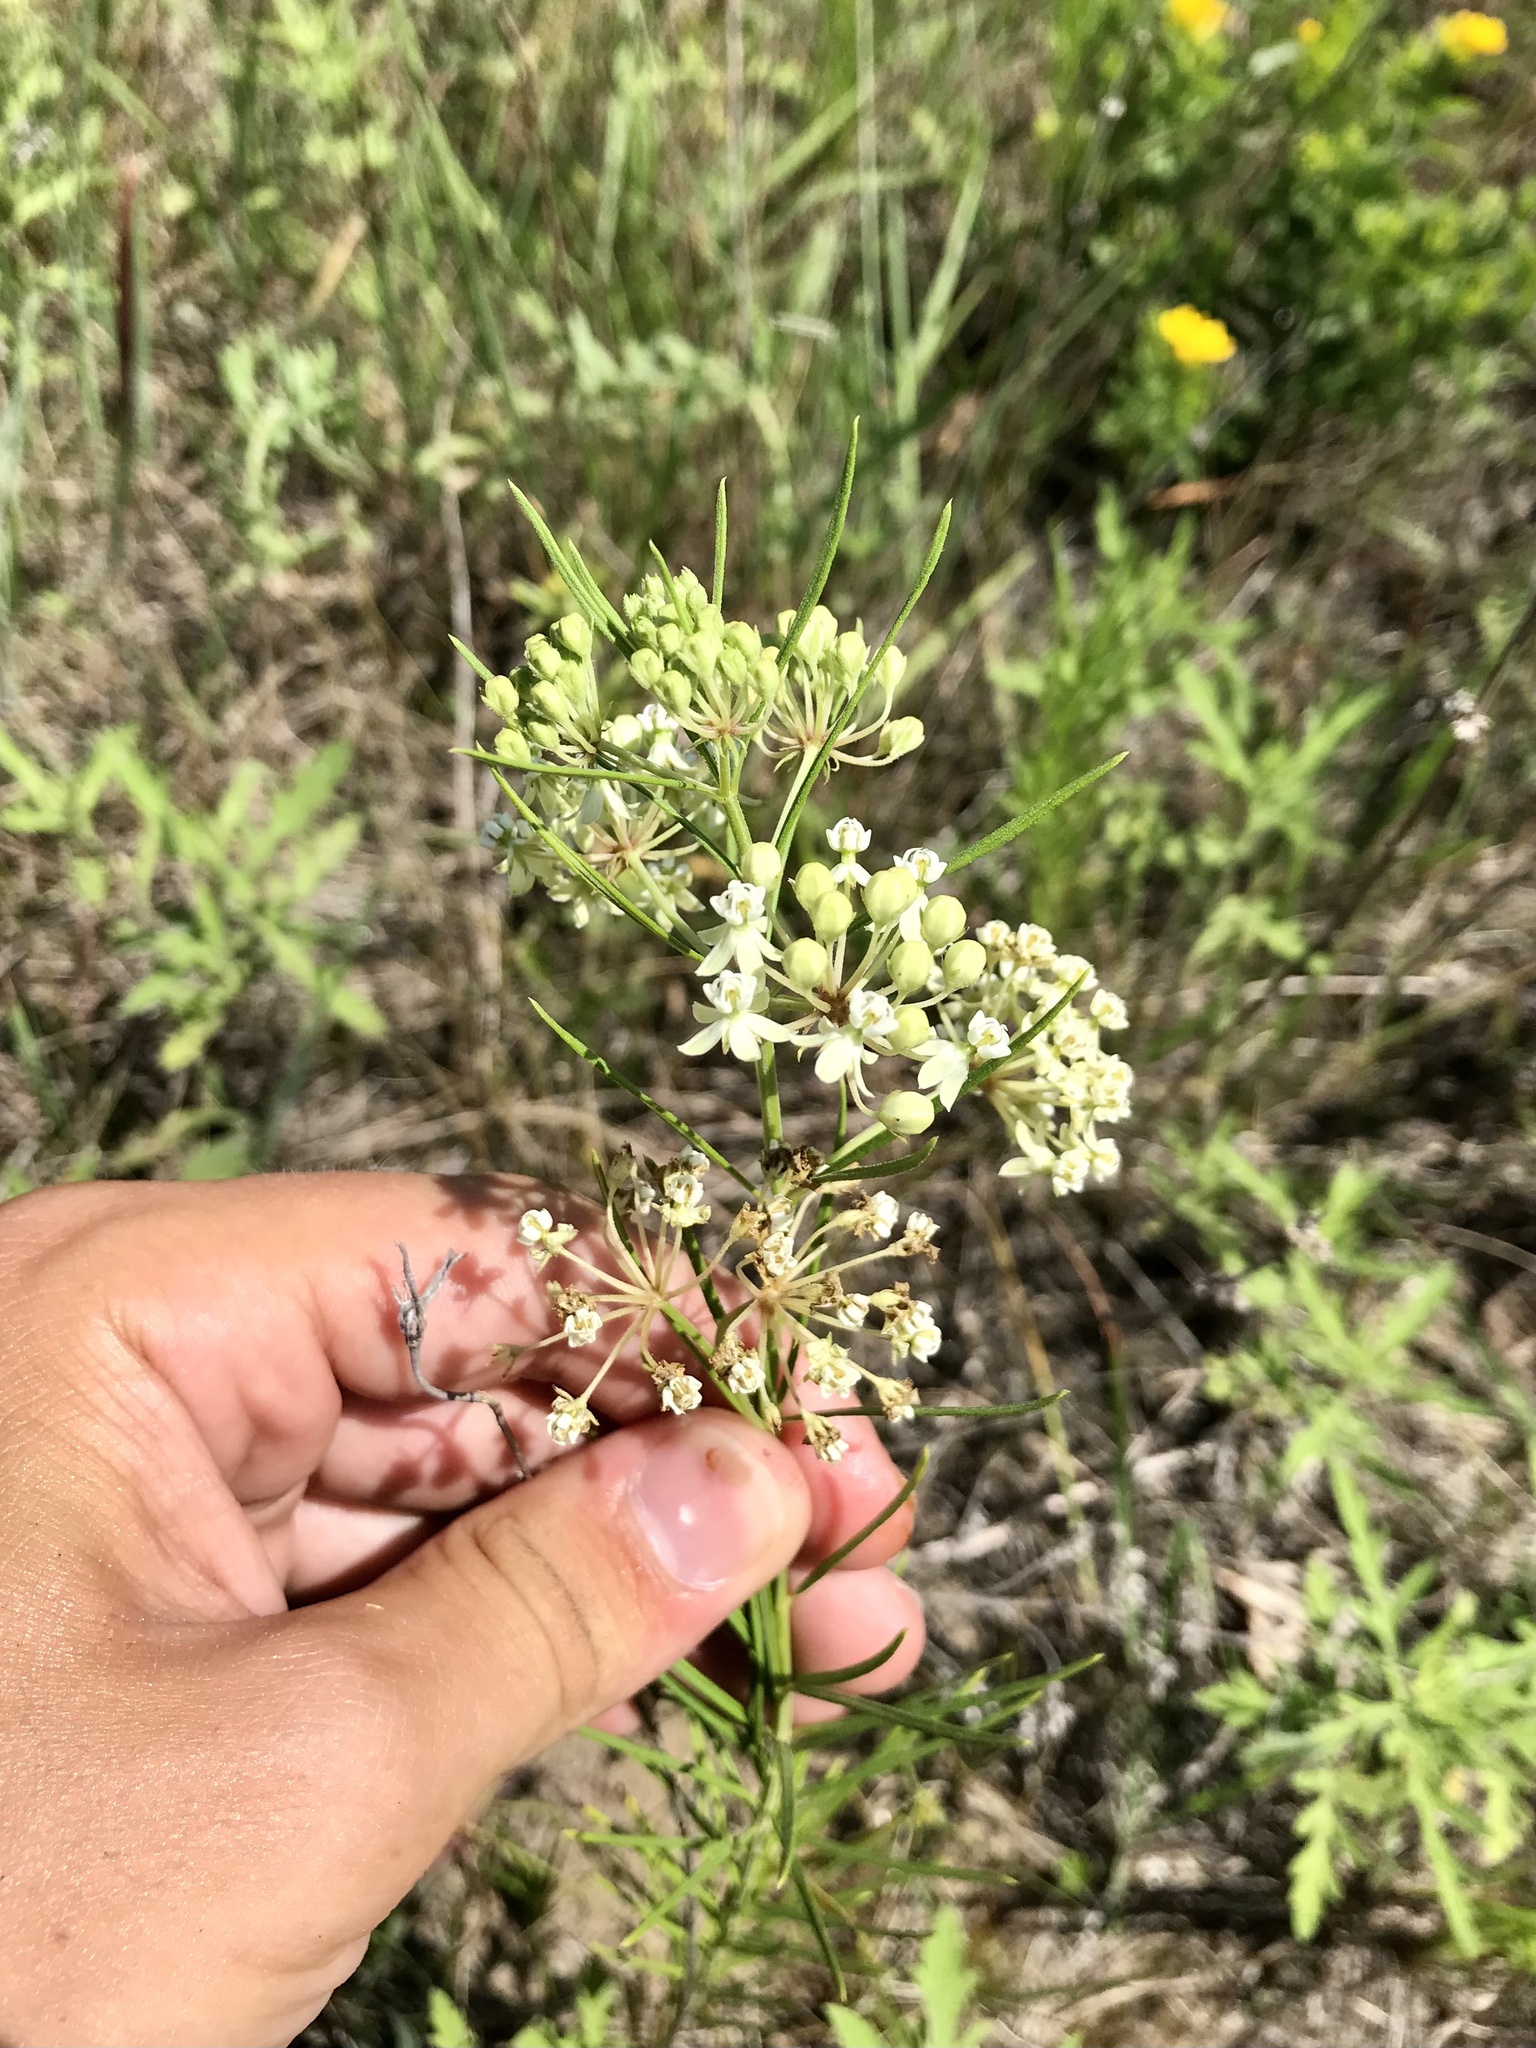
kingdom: Plantae
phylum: Tracheophyta
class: Magnoliopsida
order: Gentianales
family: Apocynaceae
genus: Asclepias
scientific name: Asclepias verticillata
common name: Eastern whorled milkweed
